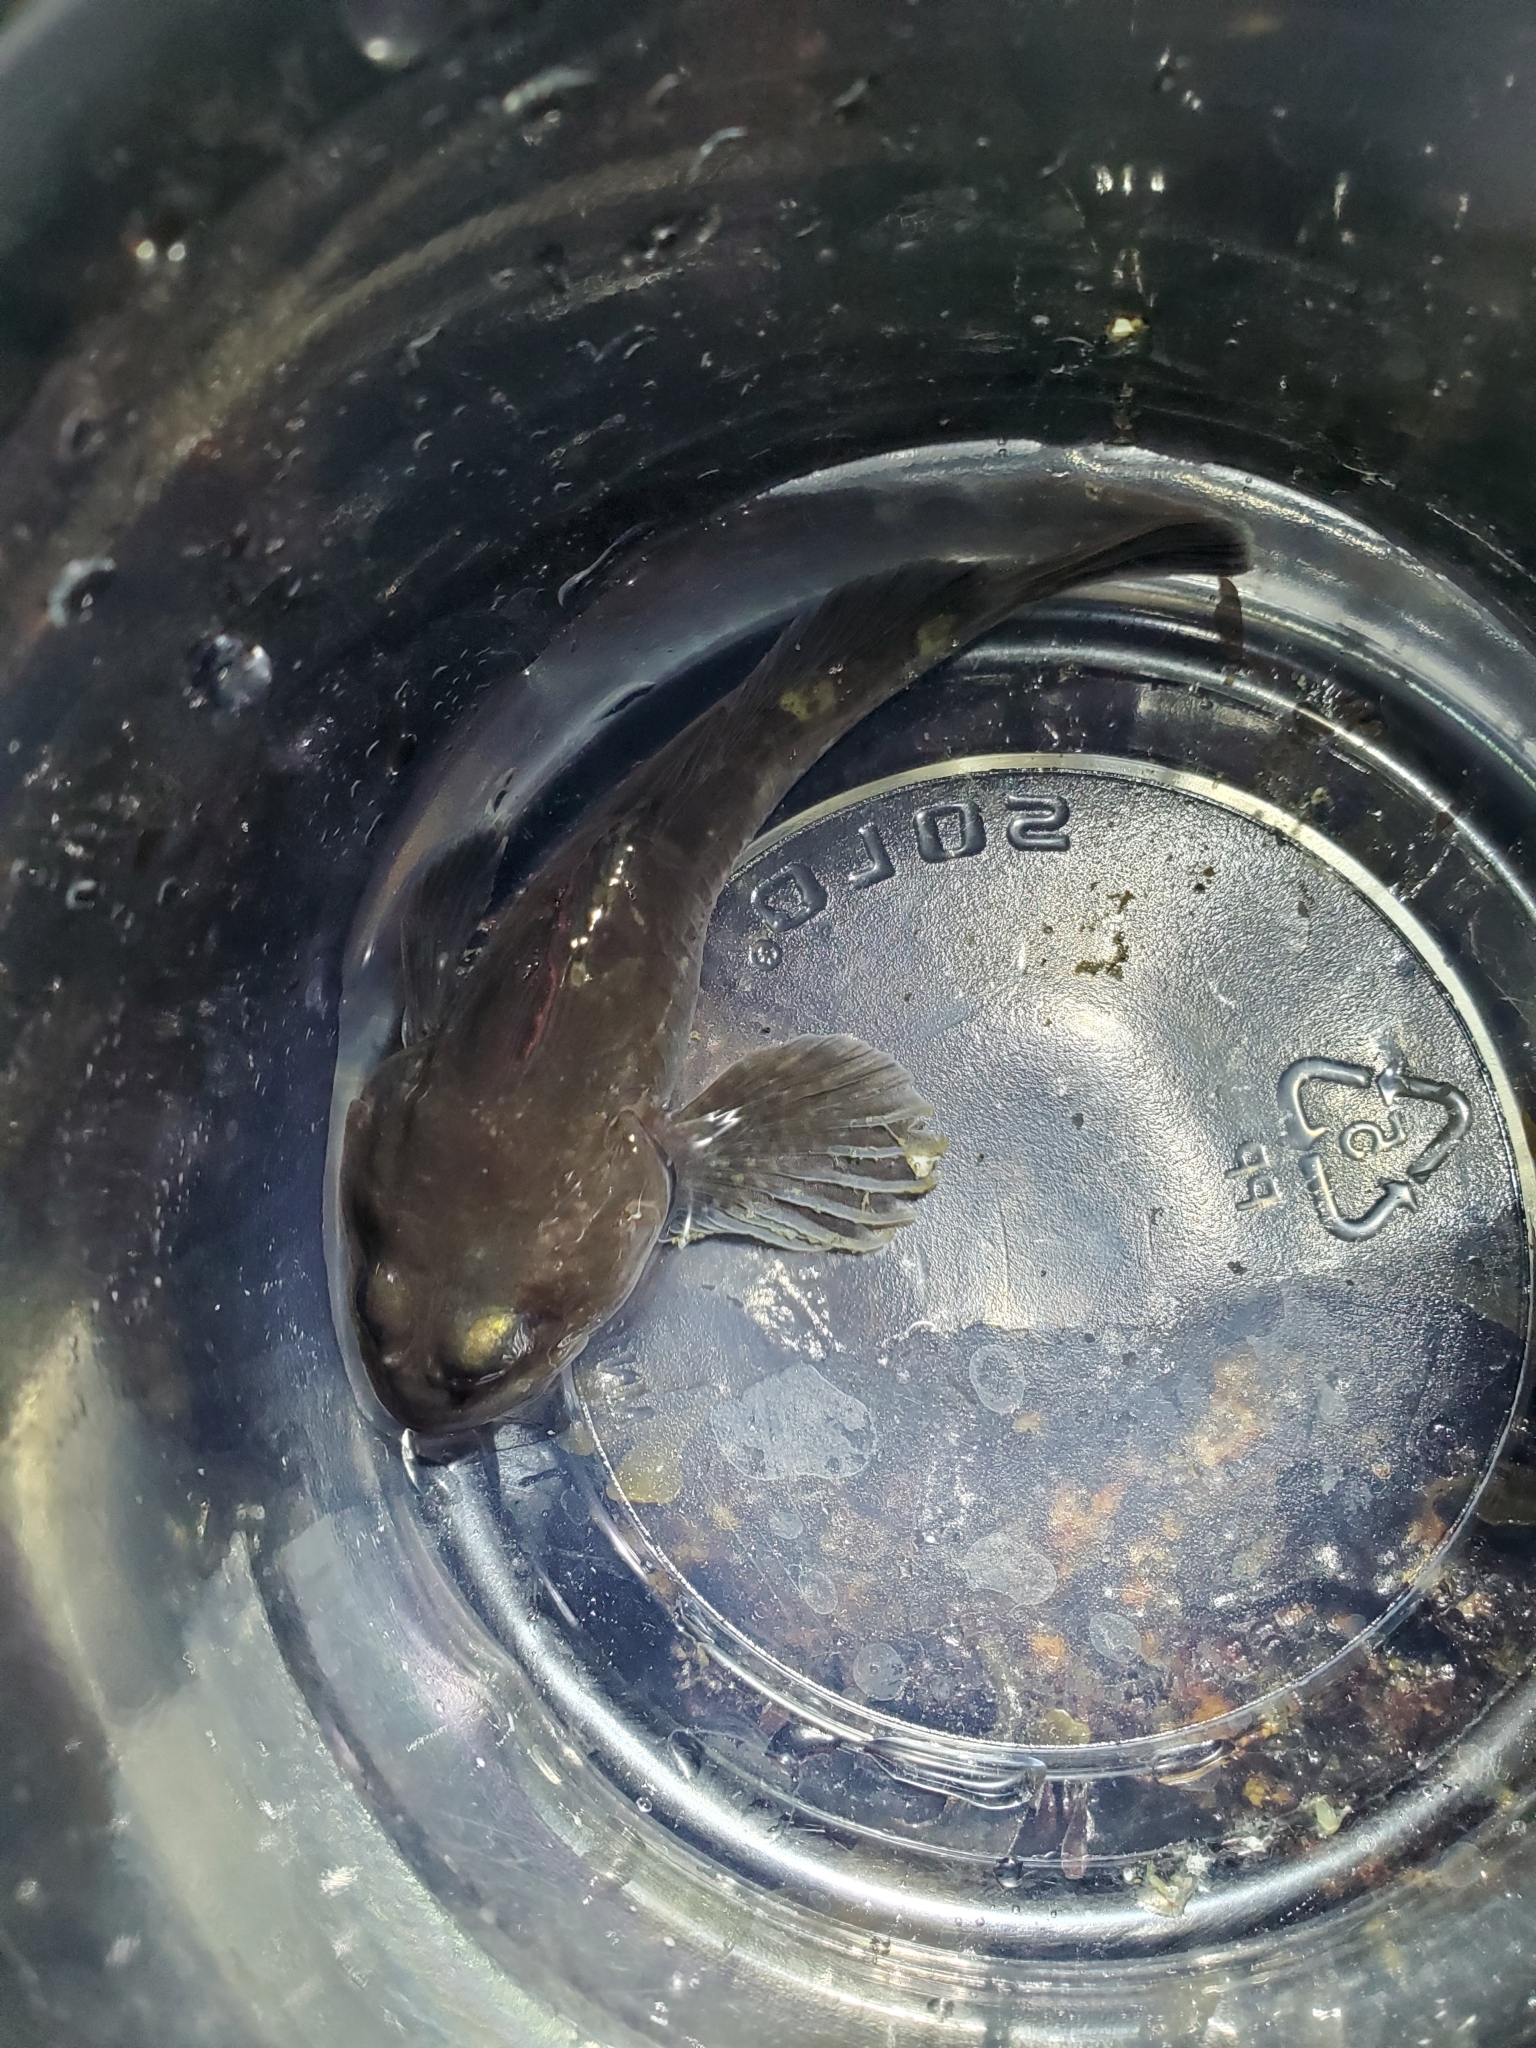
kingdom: Animalia
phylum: Chordata
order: Scorpaeniformes
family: Cottidae
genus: Ascelichthys
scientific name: Ascelichthys rhodorus
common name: Rosylip sculpin
